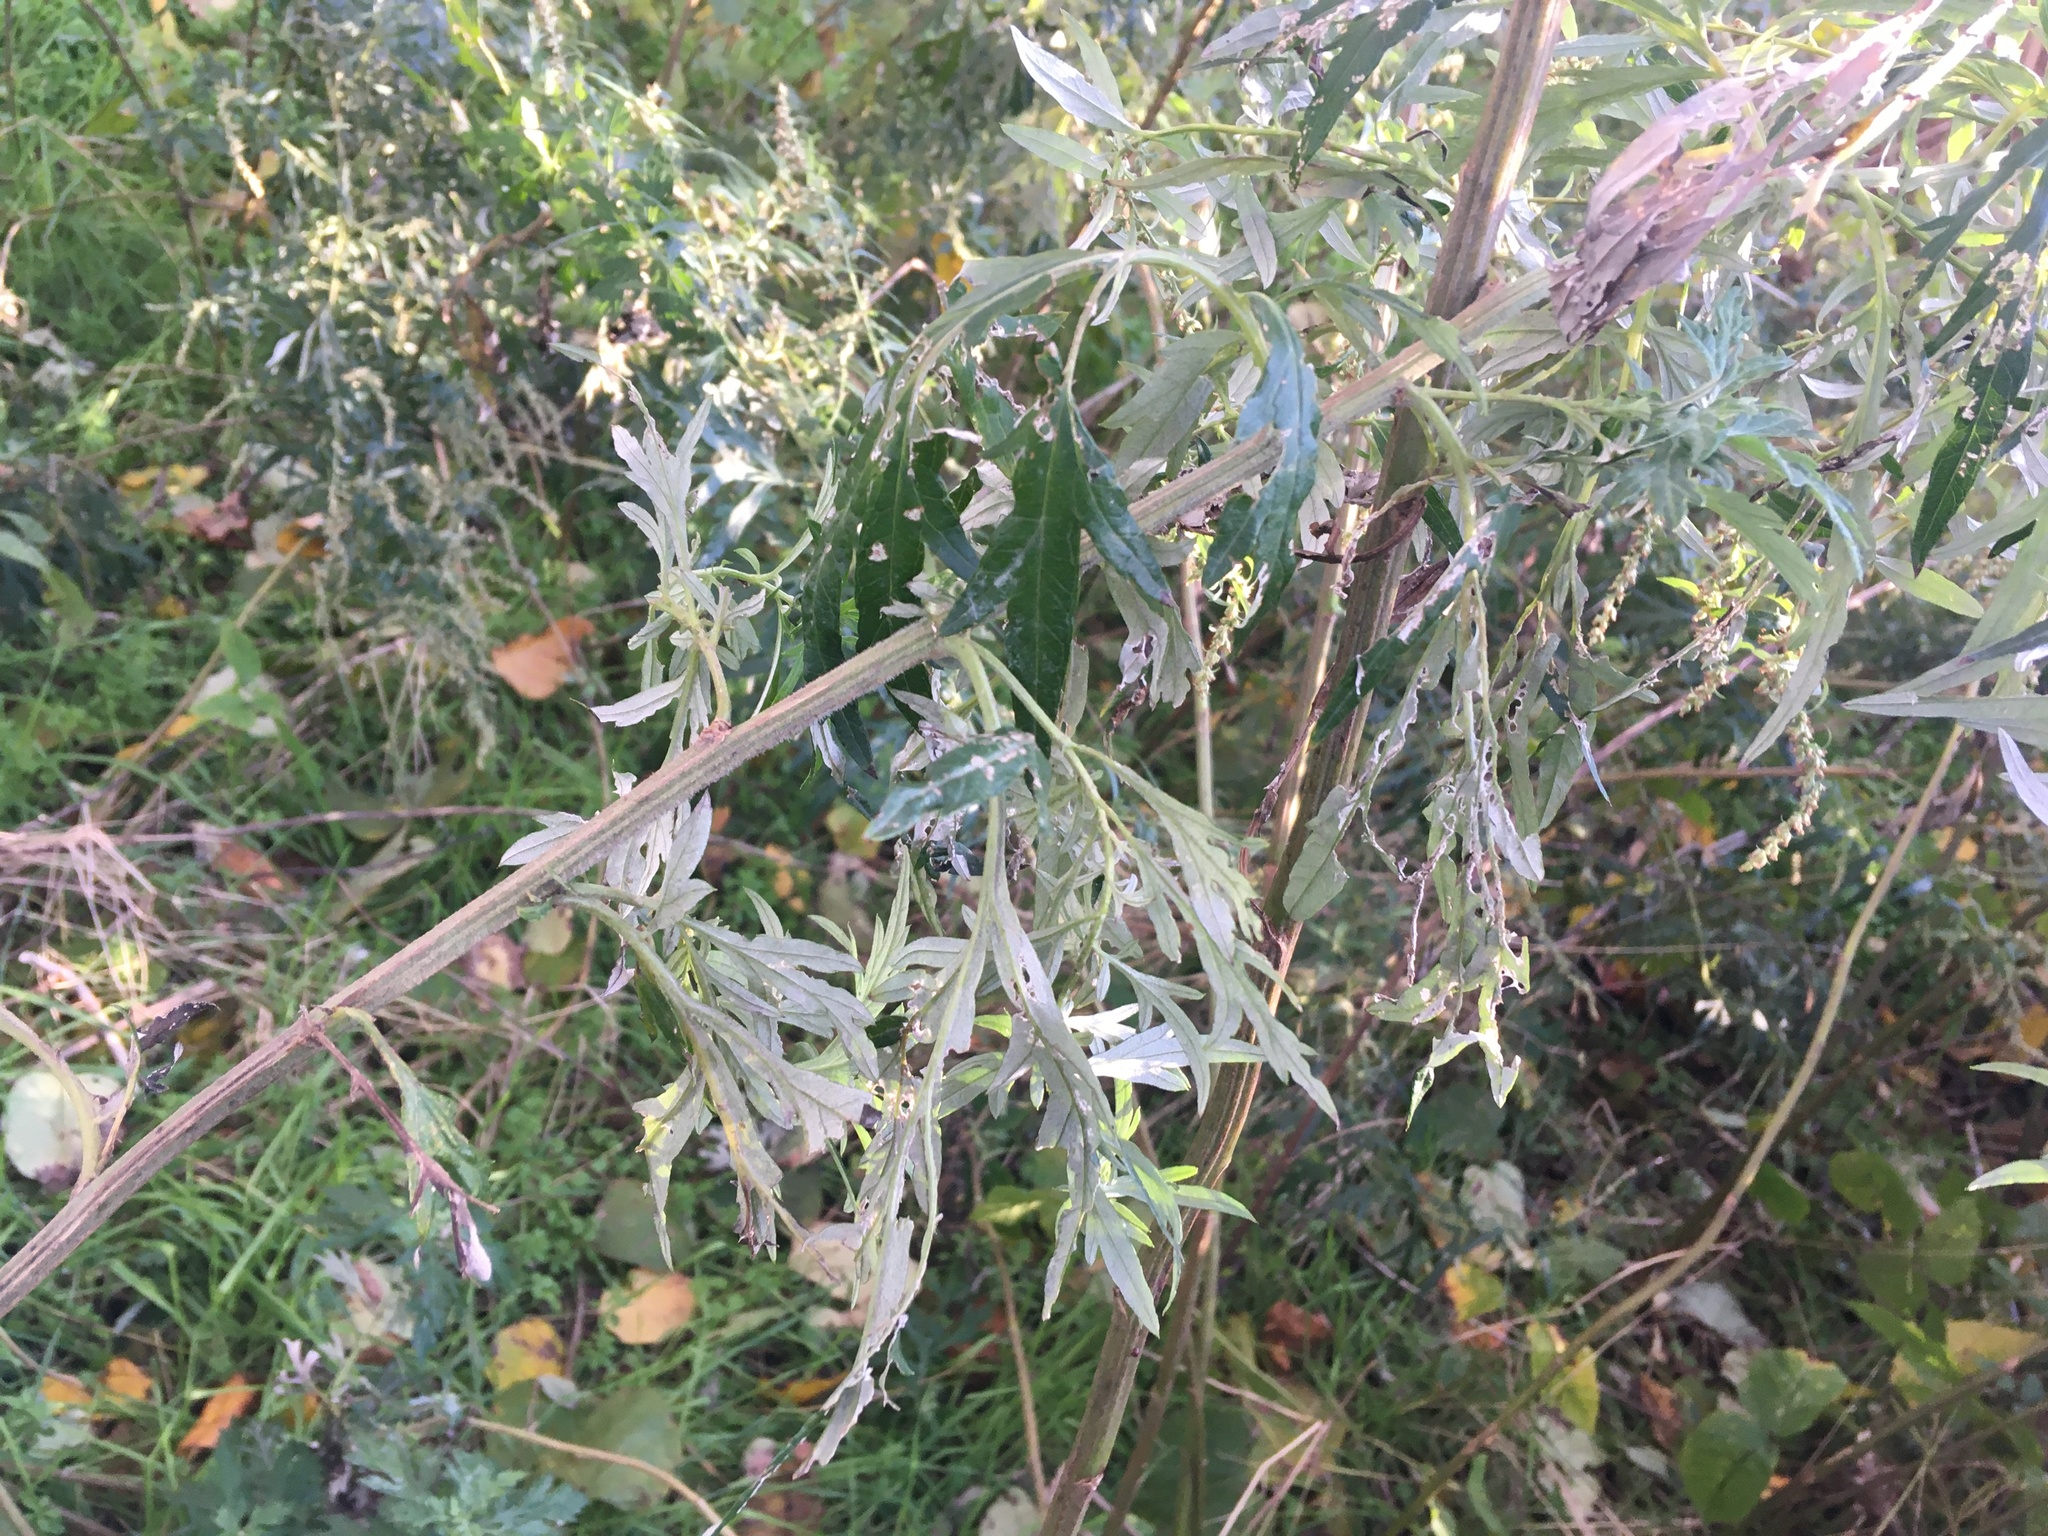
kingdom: Plantae
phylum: Tracheophyta
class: Magnoliopsida
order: Asterales
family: Asteraceae
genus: Artemisia
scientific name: Artemisia vulgaris
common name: Mugwort
